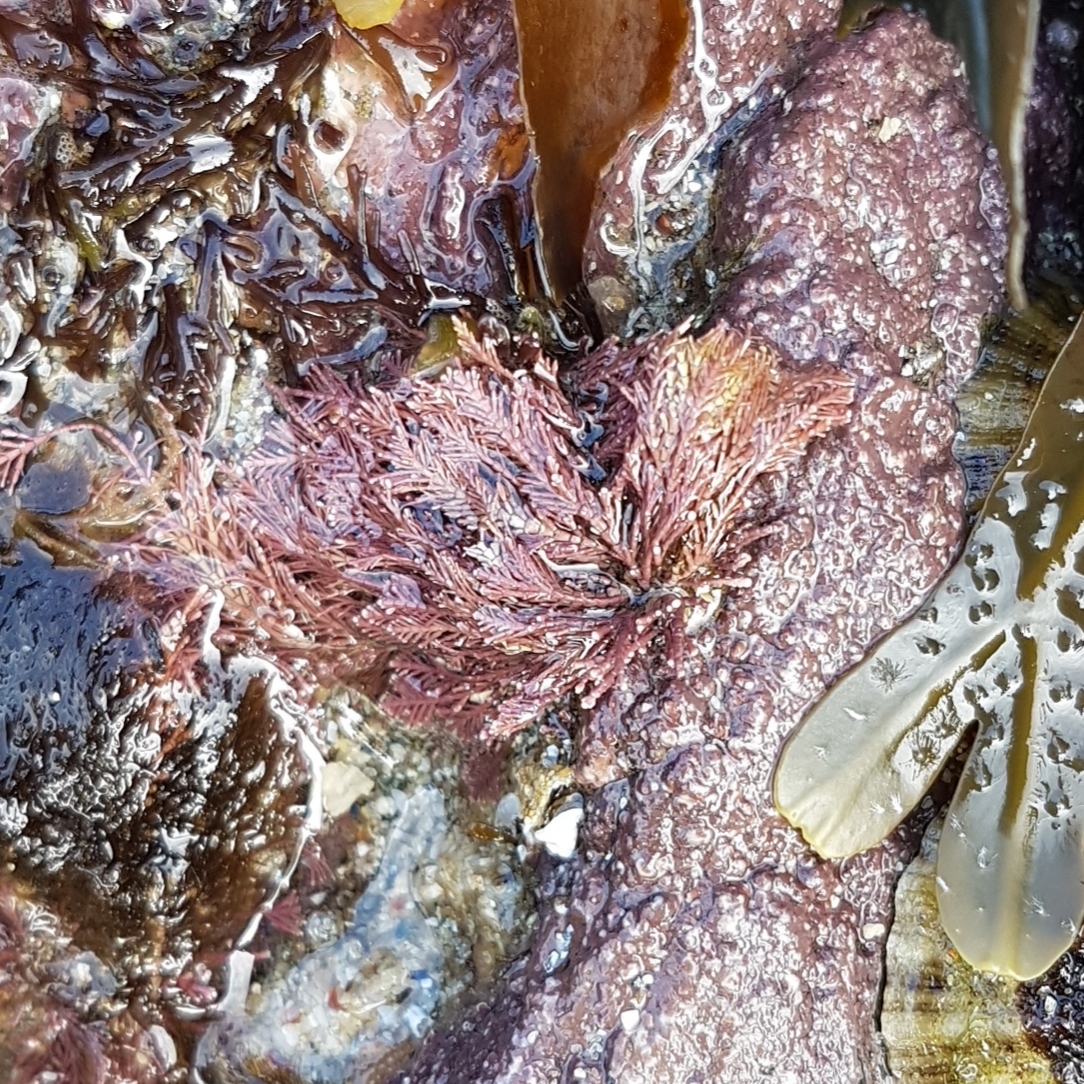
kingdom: Plantae
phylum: Rhodophyta
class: Florideophyceae
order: Corallinales
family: Corallinaceae
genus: Corallina
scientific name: Corallina officinalis
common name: Coral weed
